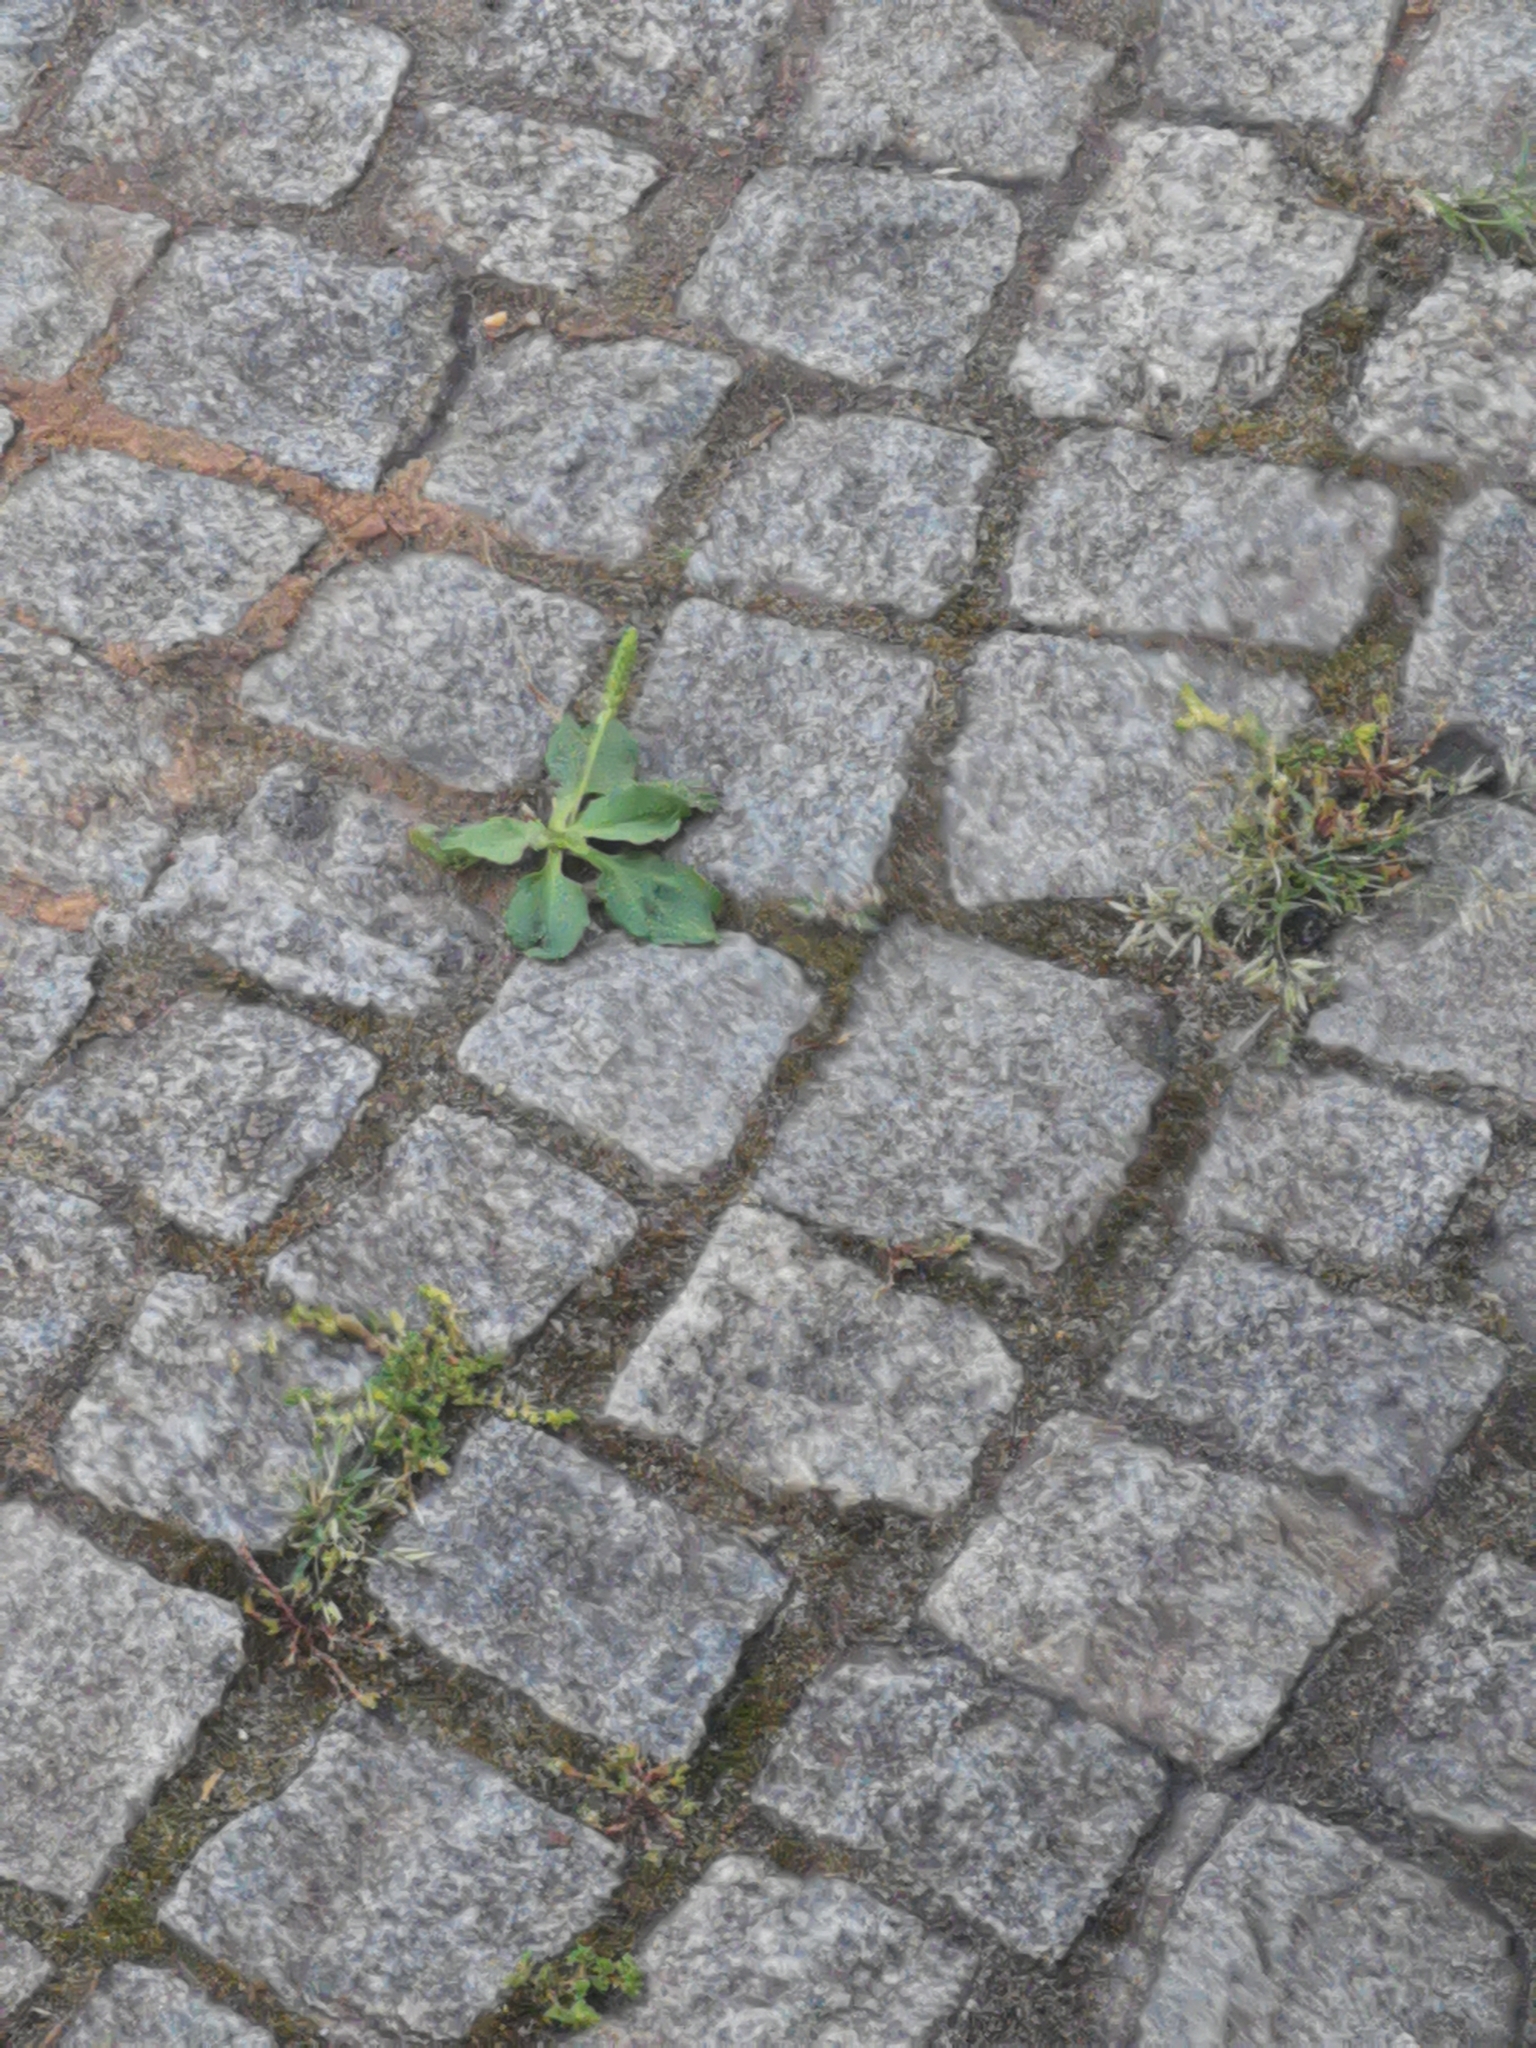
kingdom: Plantae
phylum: Tracheophyta
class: Magnoliopsida
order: Lamiales
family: Plantaginaceae
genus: Plantago
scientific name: Plantago major
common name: Common plantain
